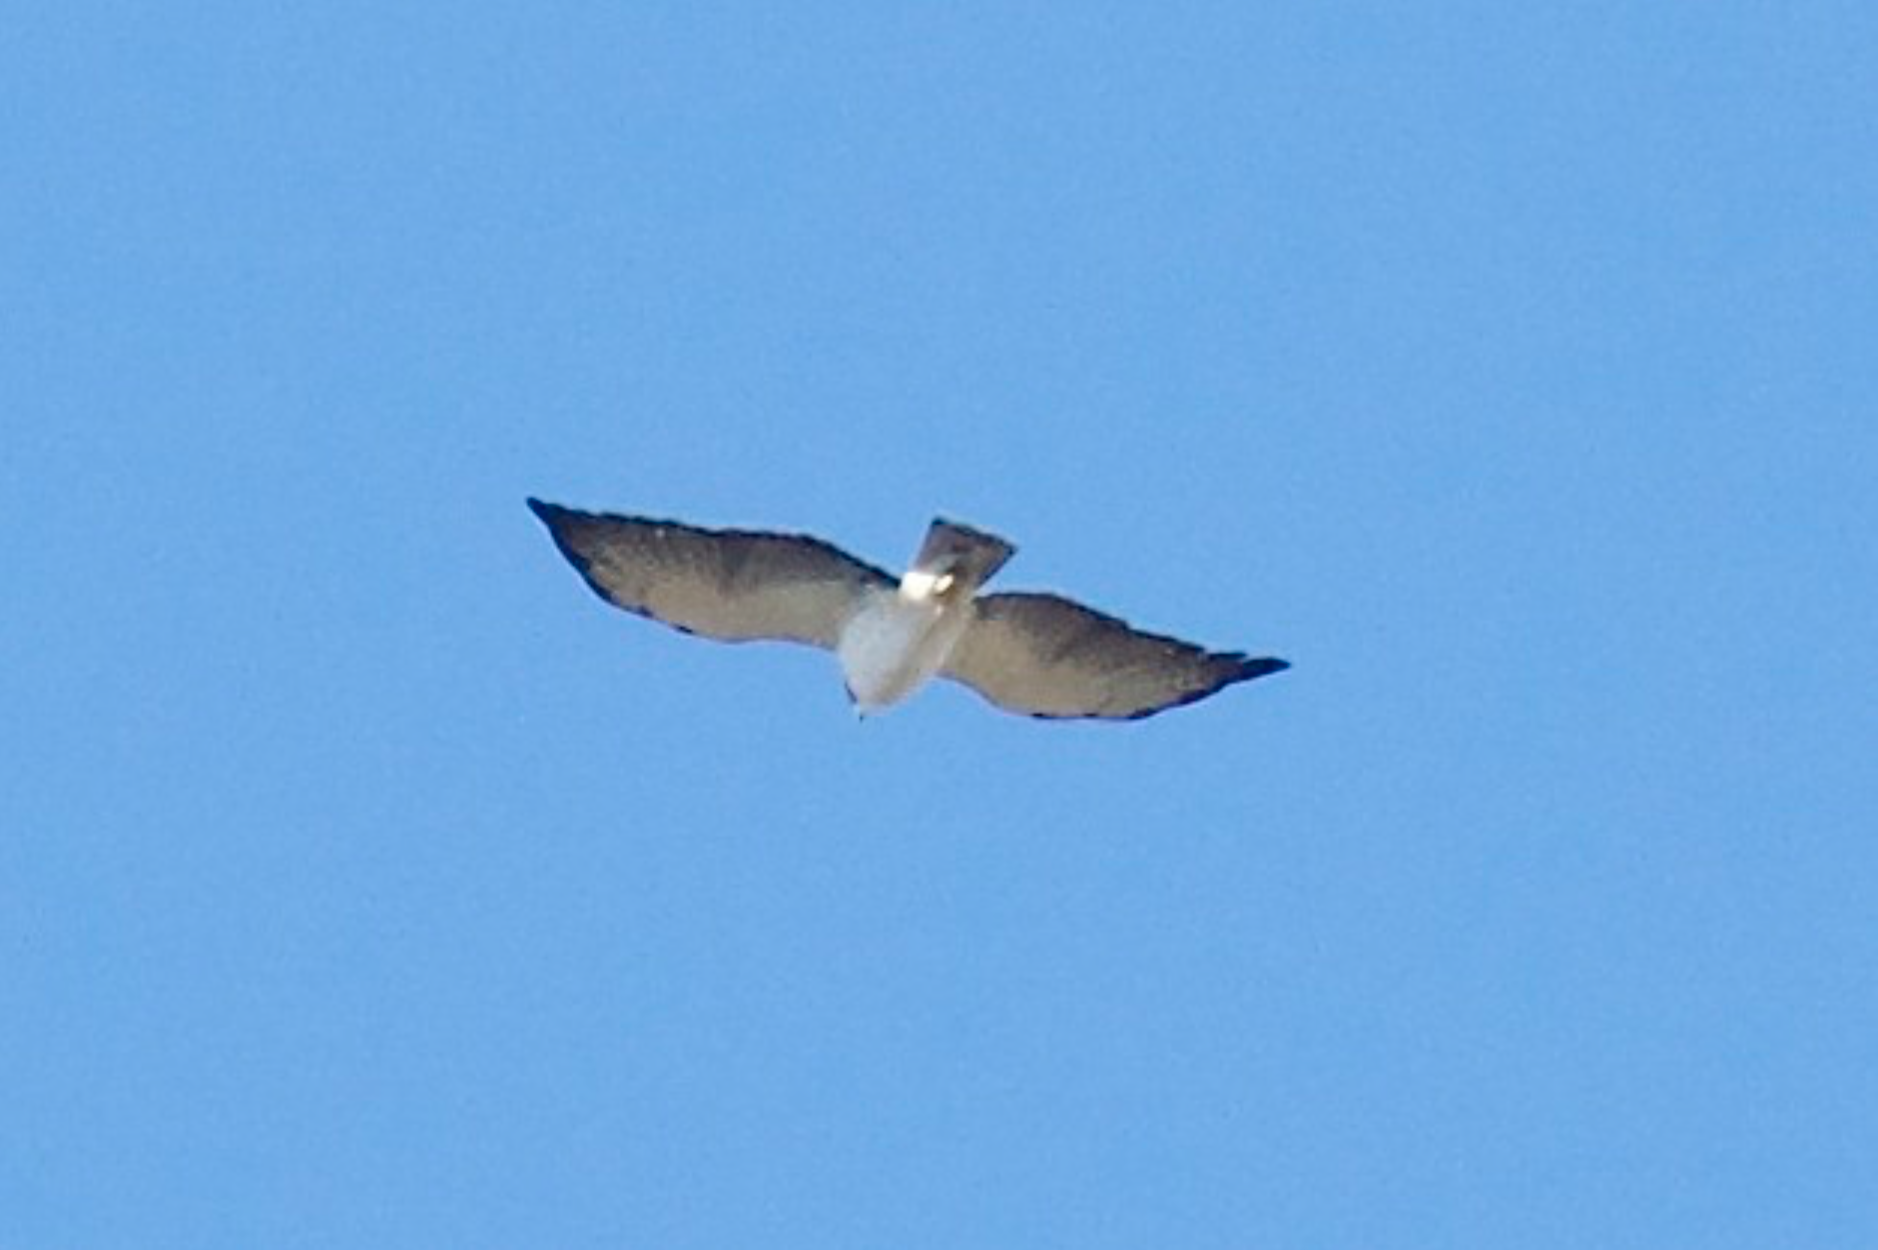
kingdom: Animalia
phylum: Chordata
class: Aves
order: Accipitriformes
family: Accipitridae
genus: Buteo
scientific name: Buteo brachyurus
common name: Short-tailed hawk
